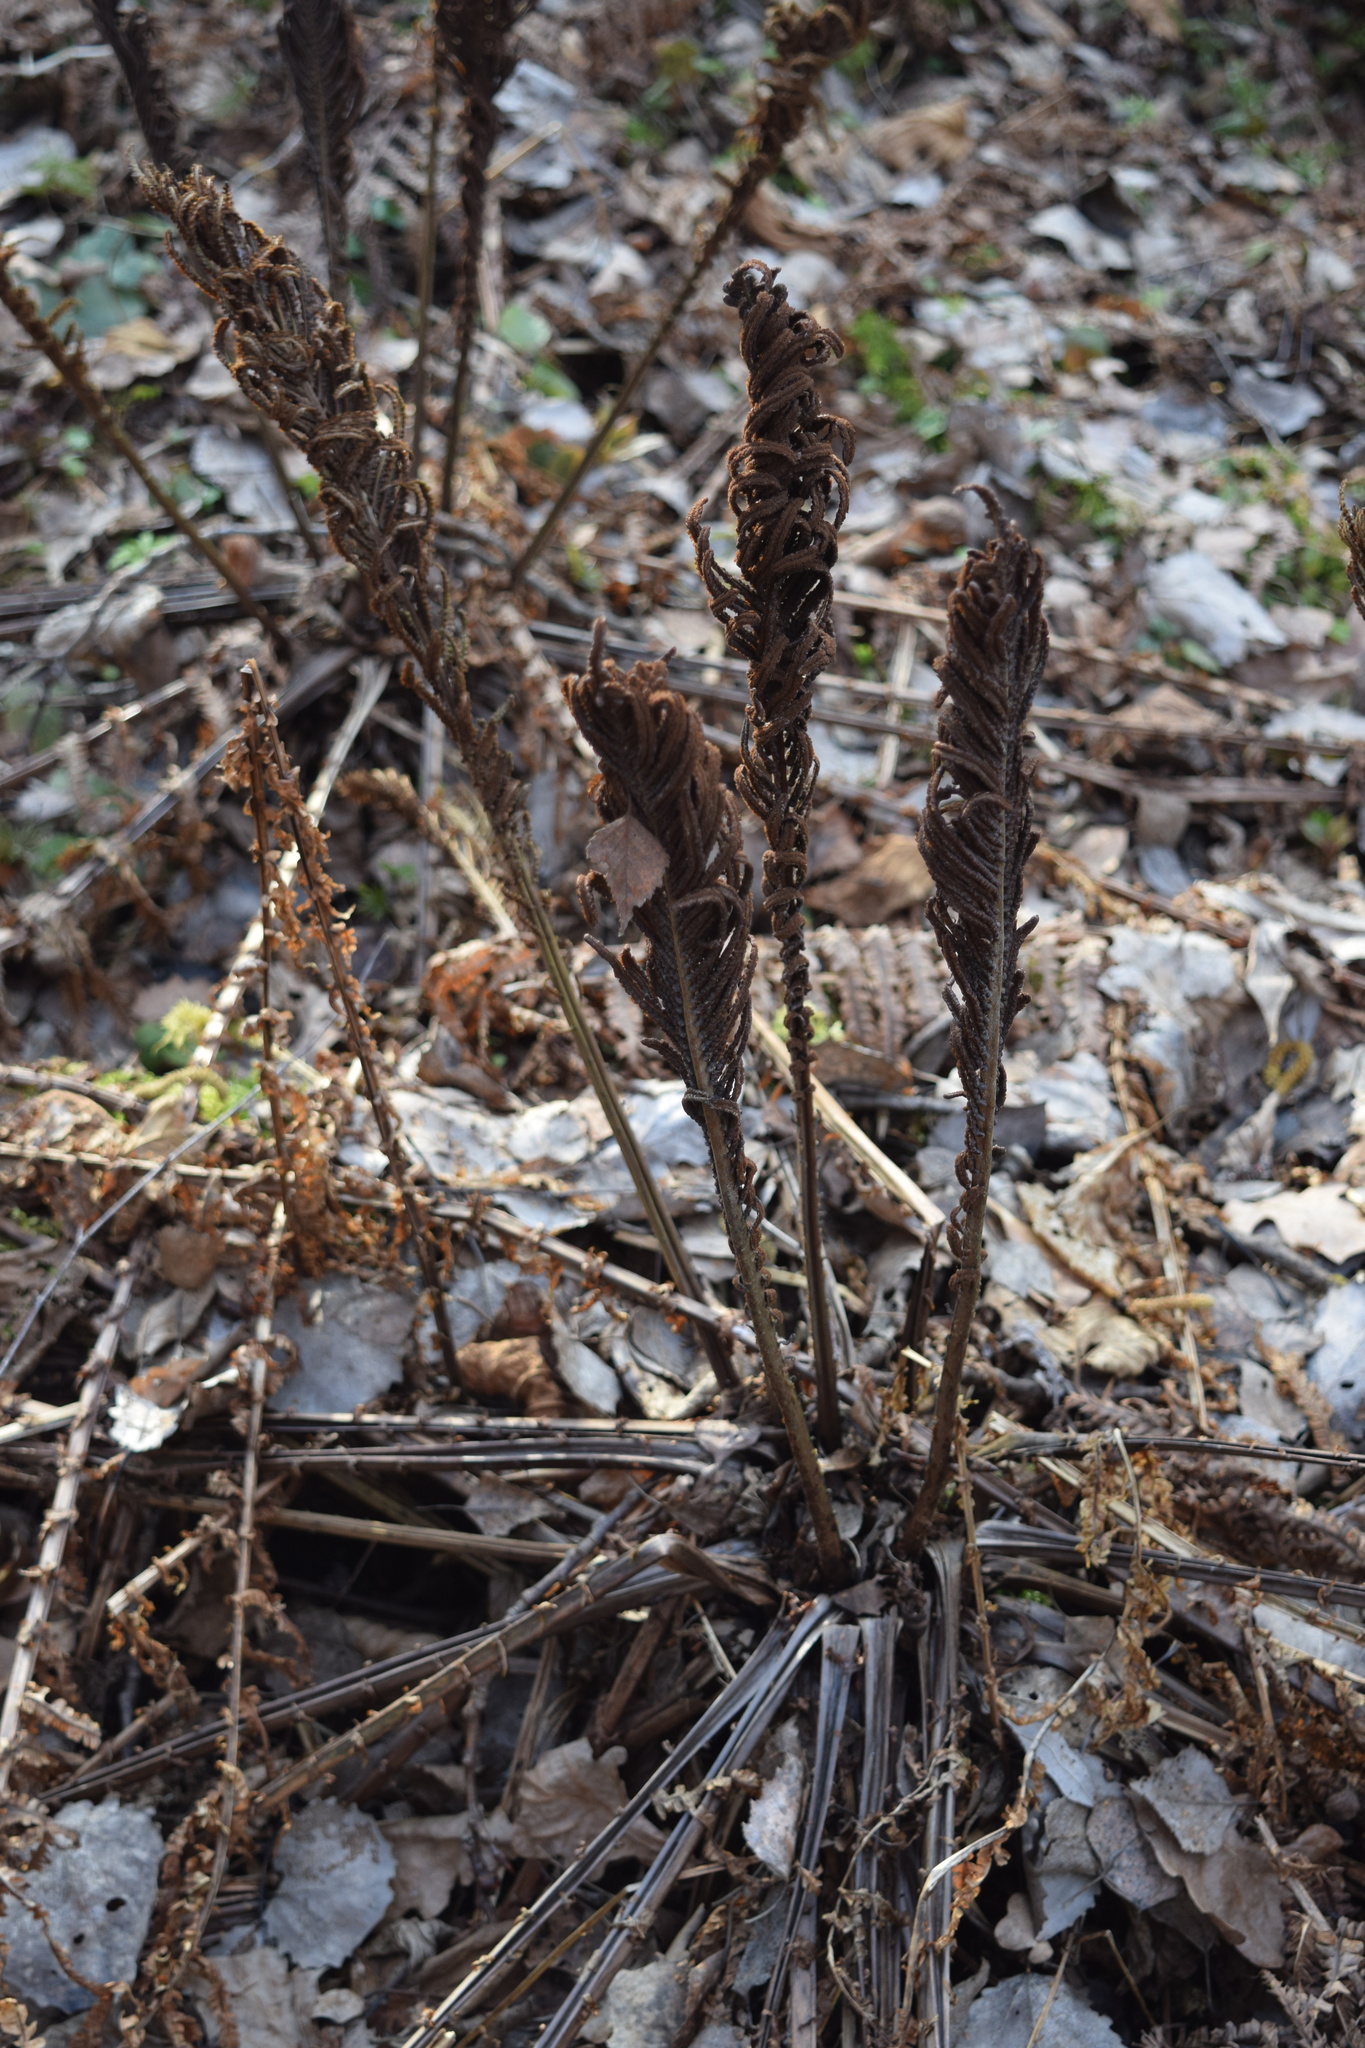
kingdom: Plantae
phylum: Tracheophyta
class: Polypodiopsida
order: Polypodiales
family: Onocleaceae
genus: Matteuccia
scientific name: Matteuccia struthiopteris
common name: Ostrich fern
